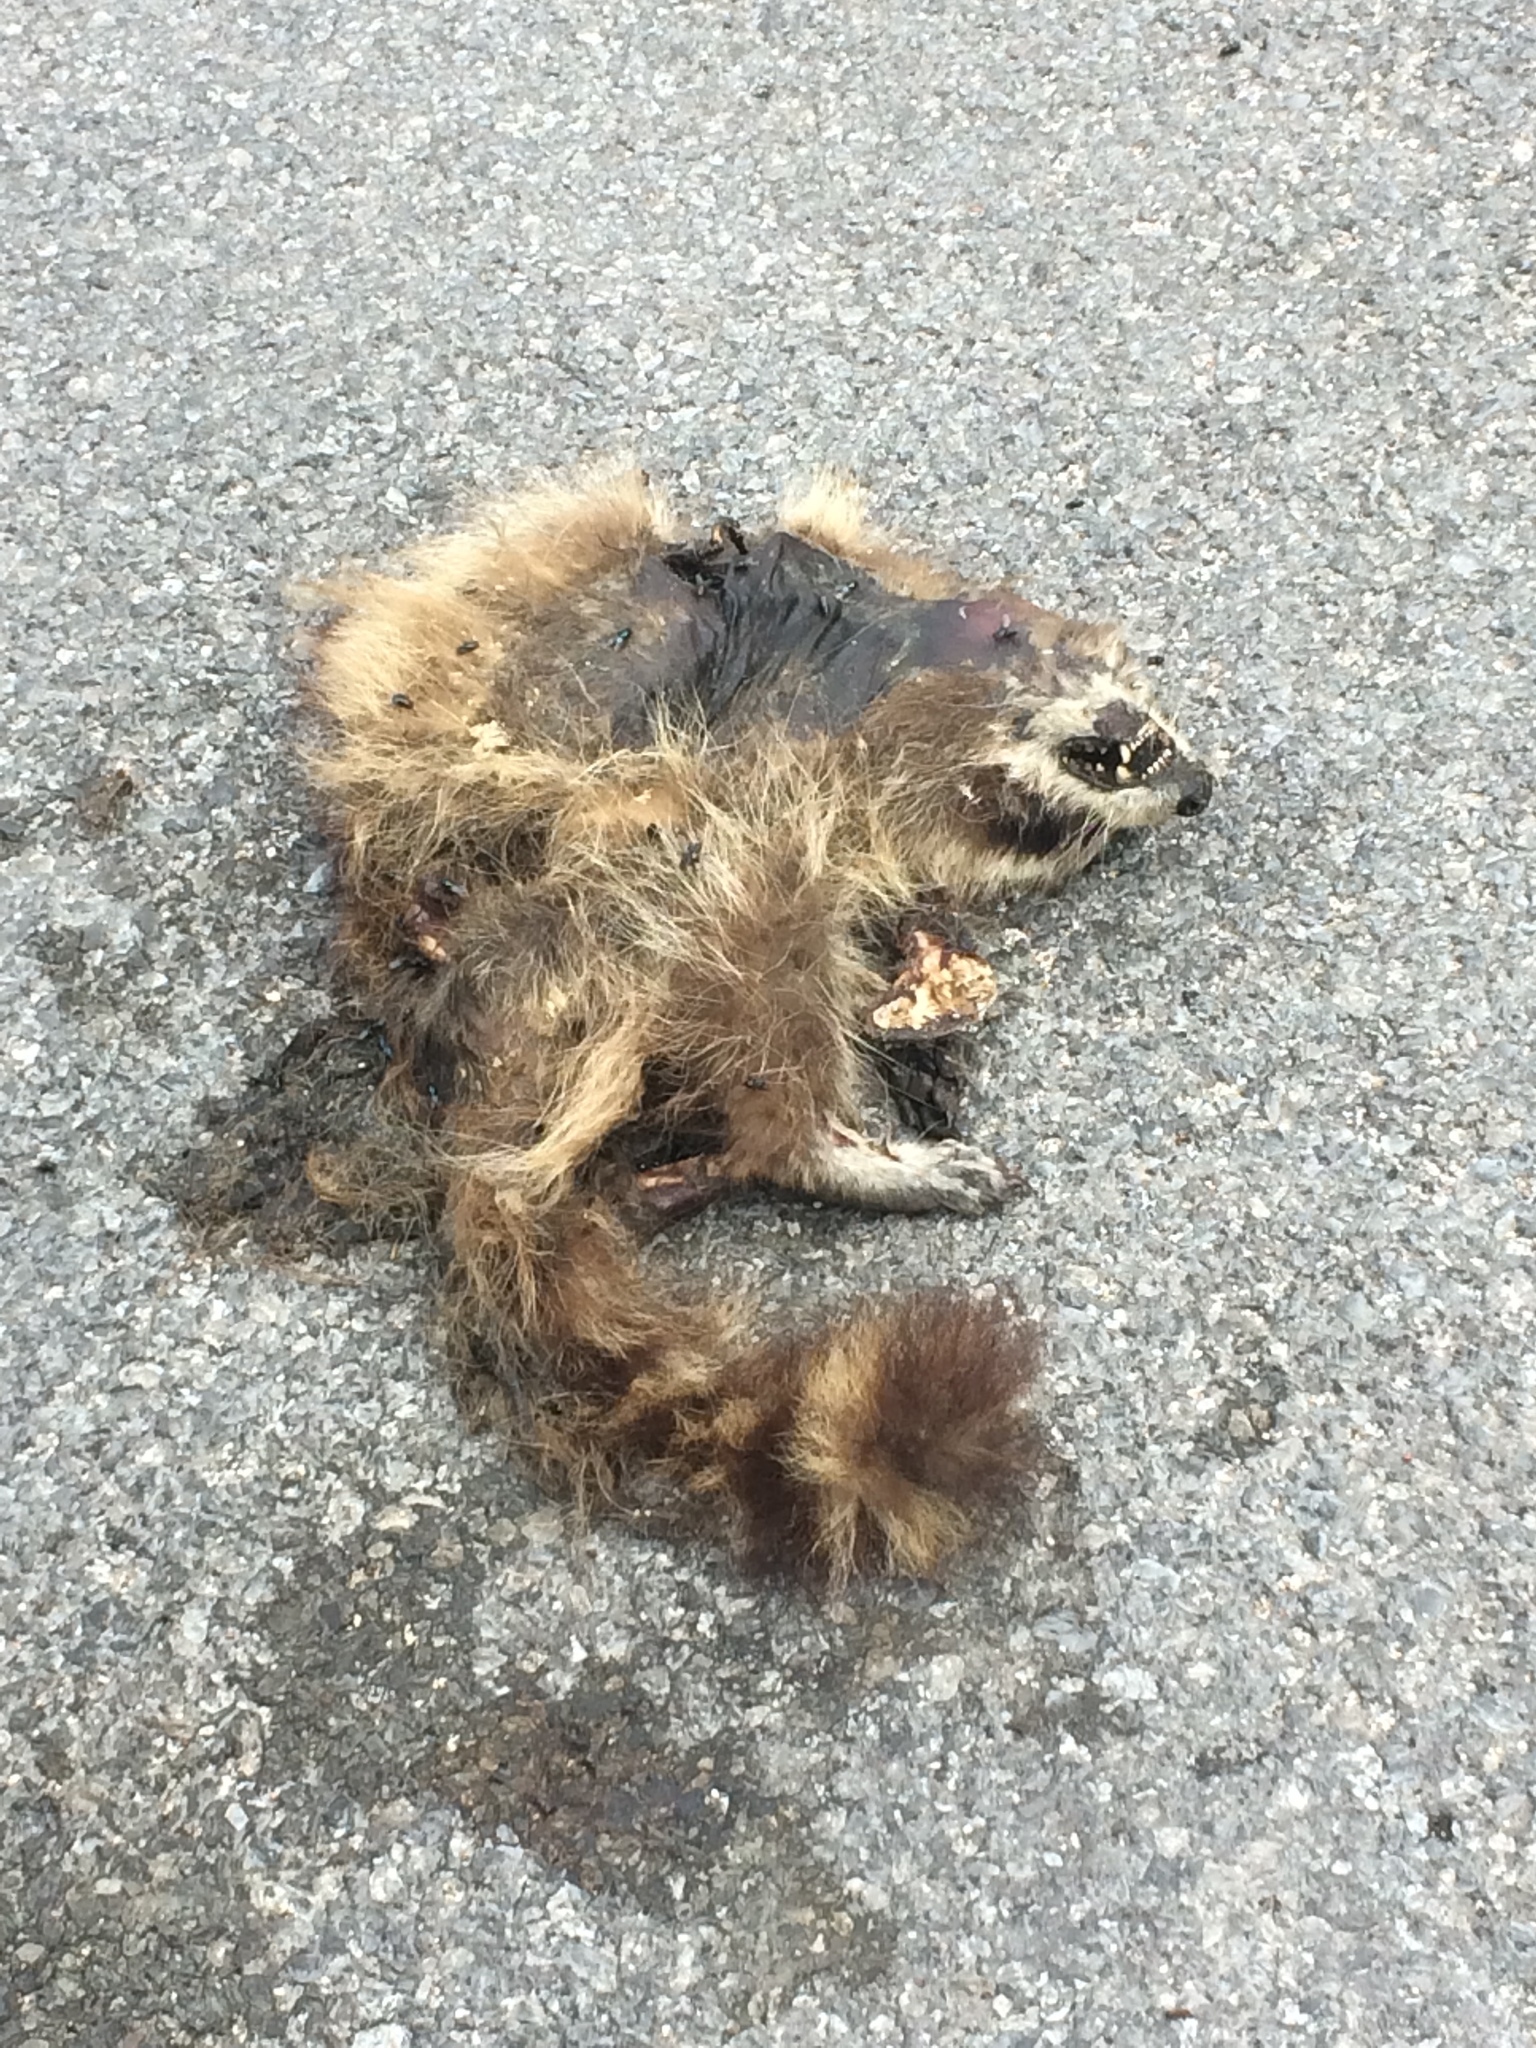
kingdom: Animalia
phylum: Chordata
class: Mammalia
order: Carnivora
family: Procyonidae
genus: Procyon
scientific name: Procyon lotor
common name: Raccoon
